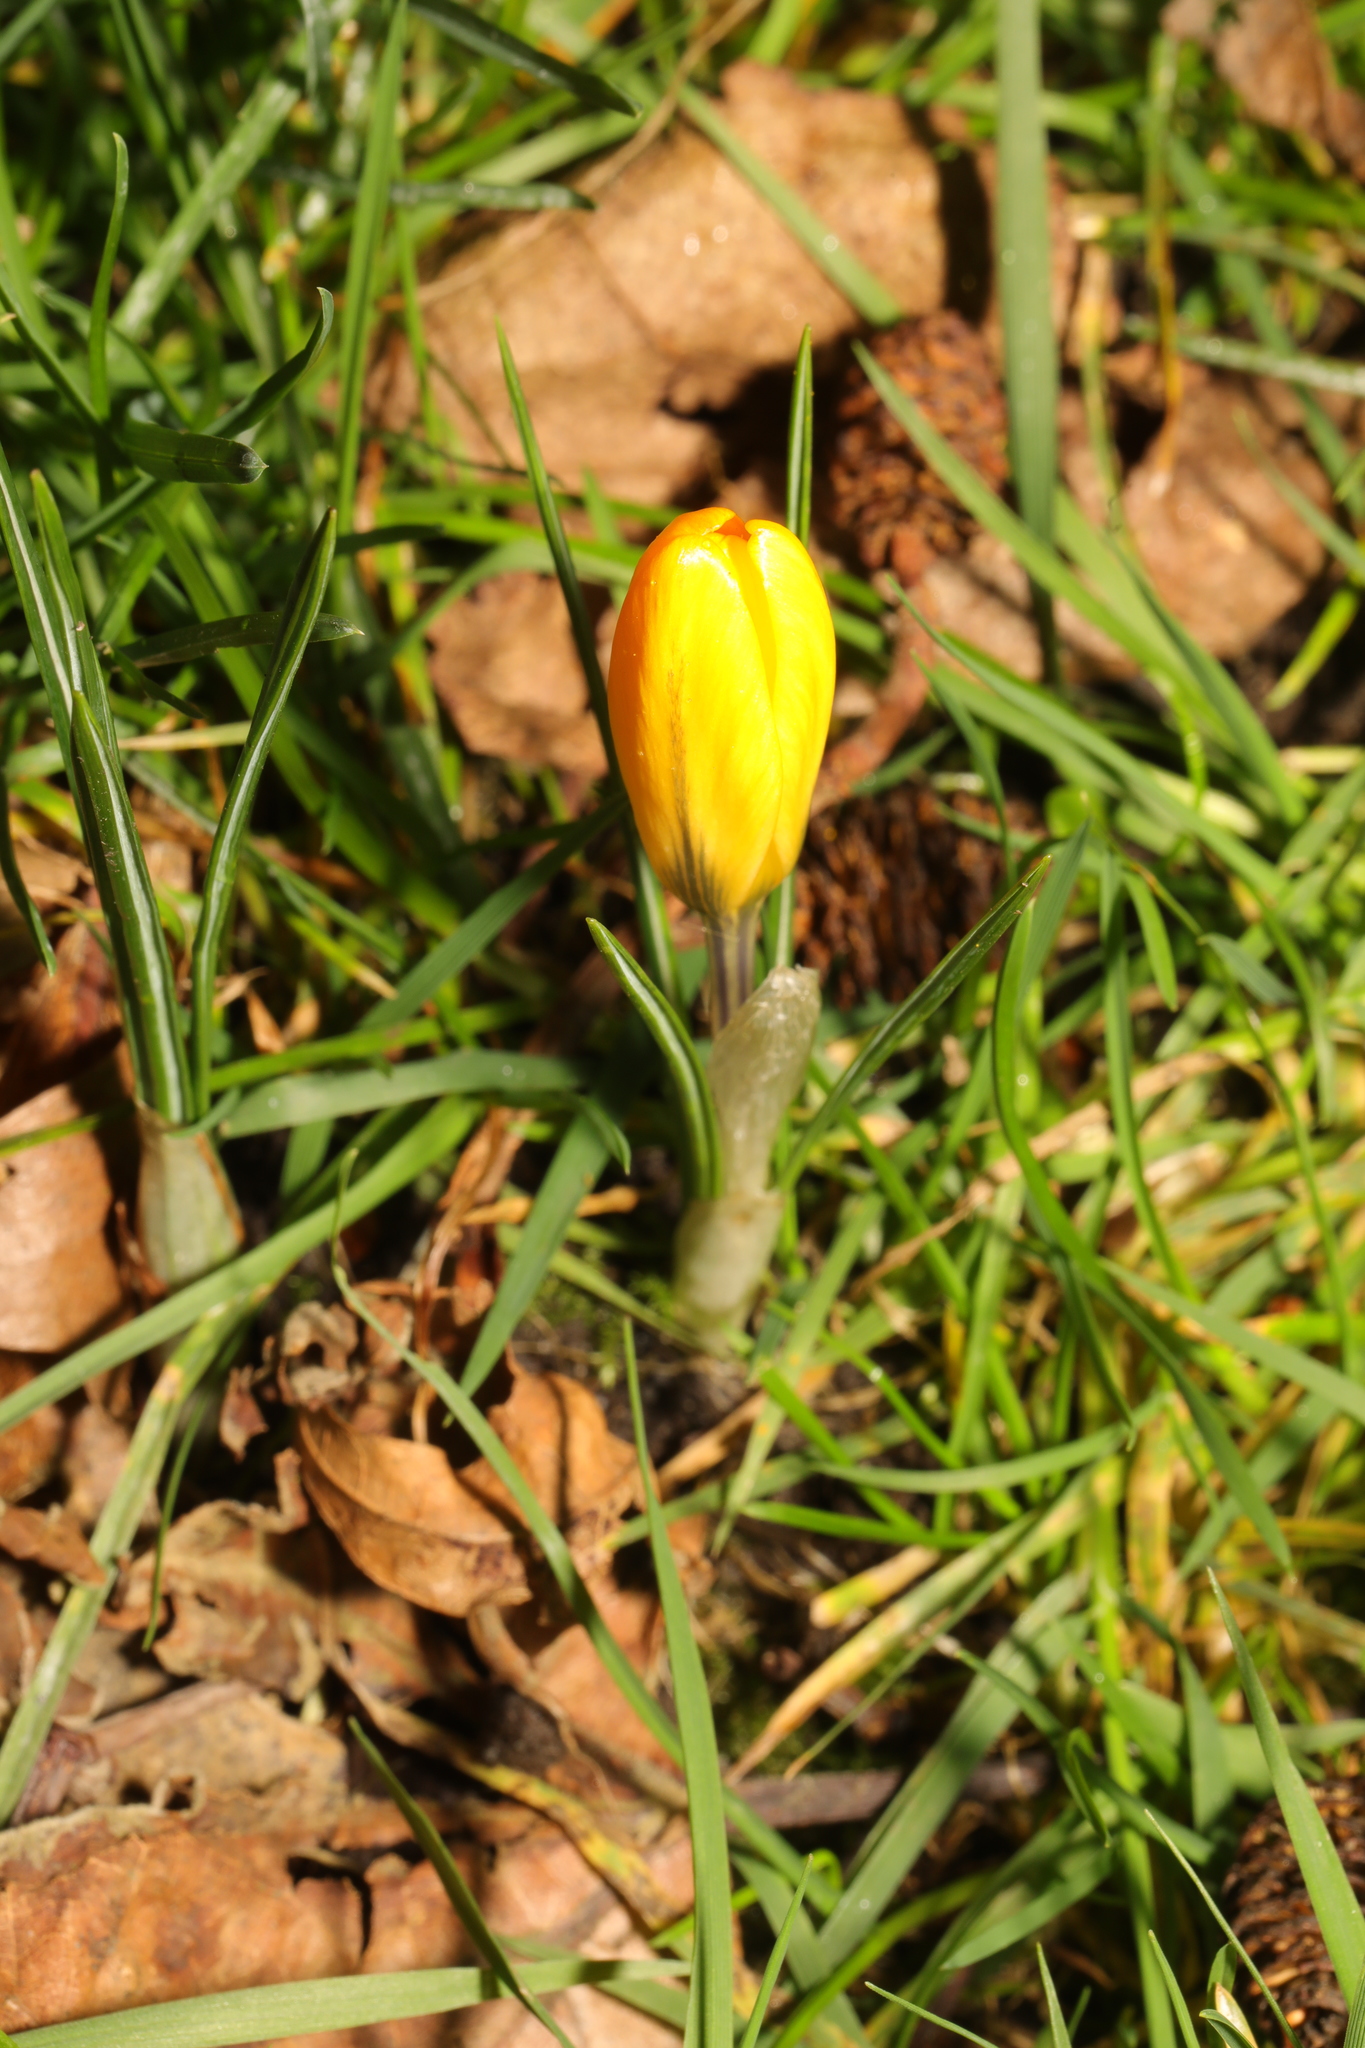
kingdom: Plantae
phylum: Tracheophyta
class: Liliopsida
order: Asparagales
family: Iridaceae
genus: Crocus
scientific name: Crocus luteus
